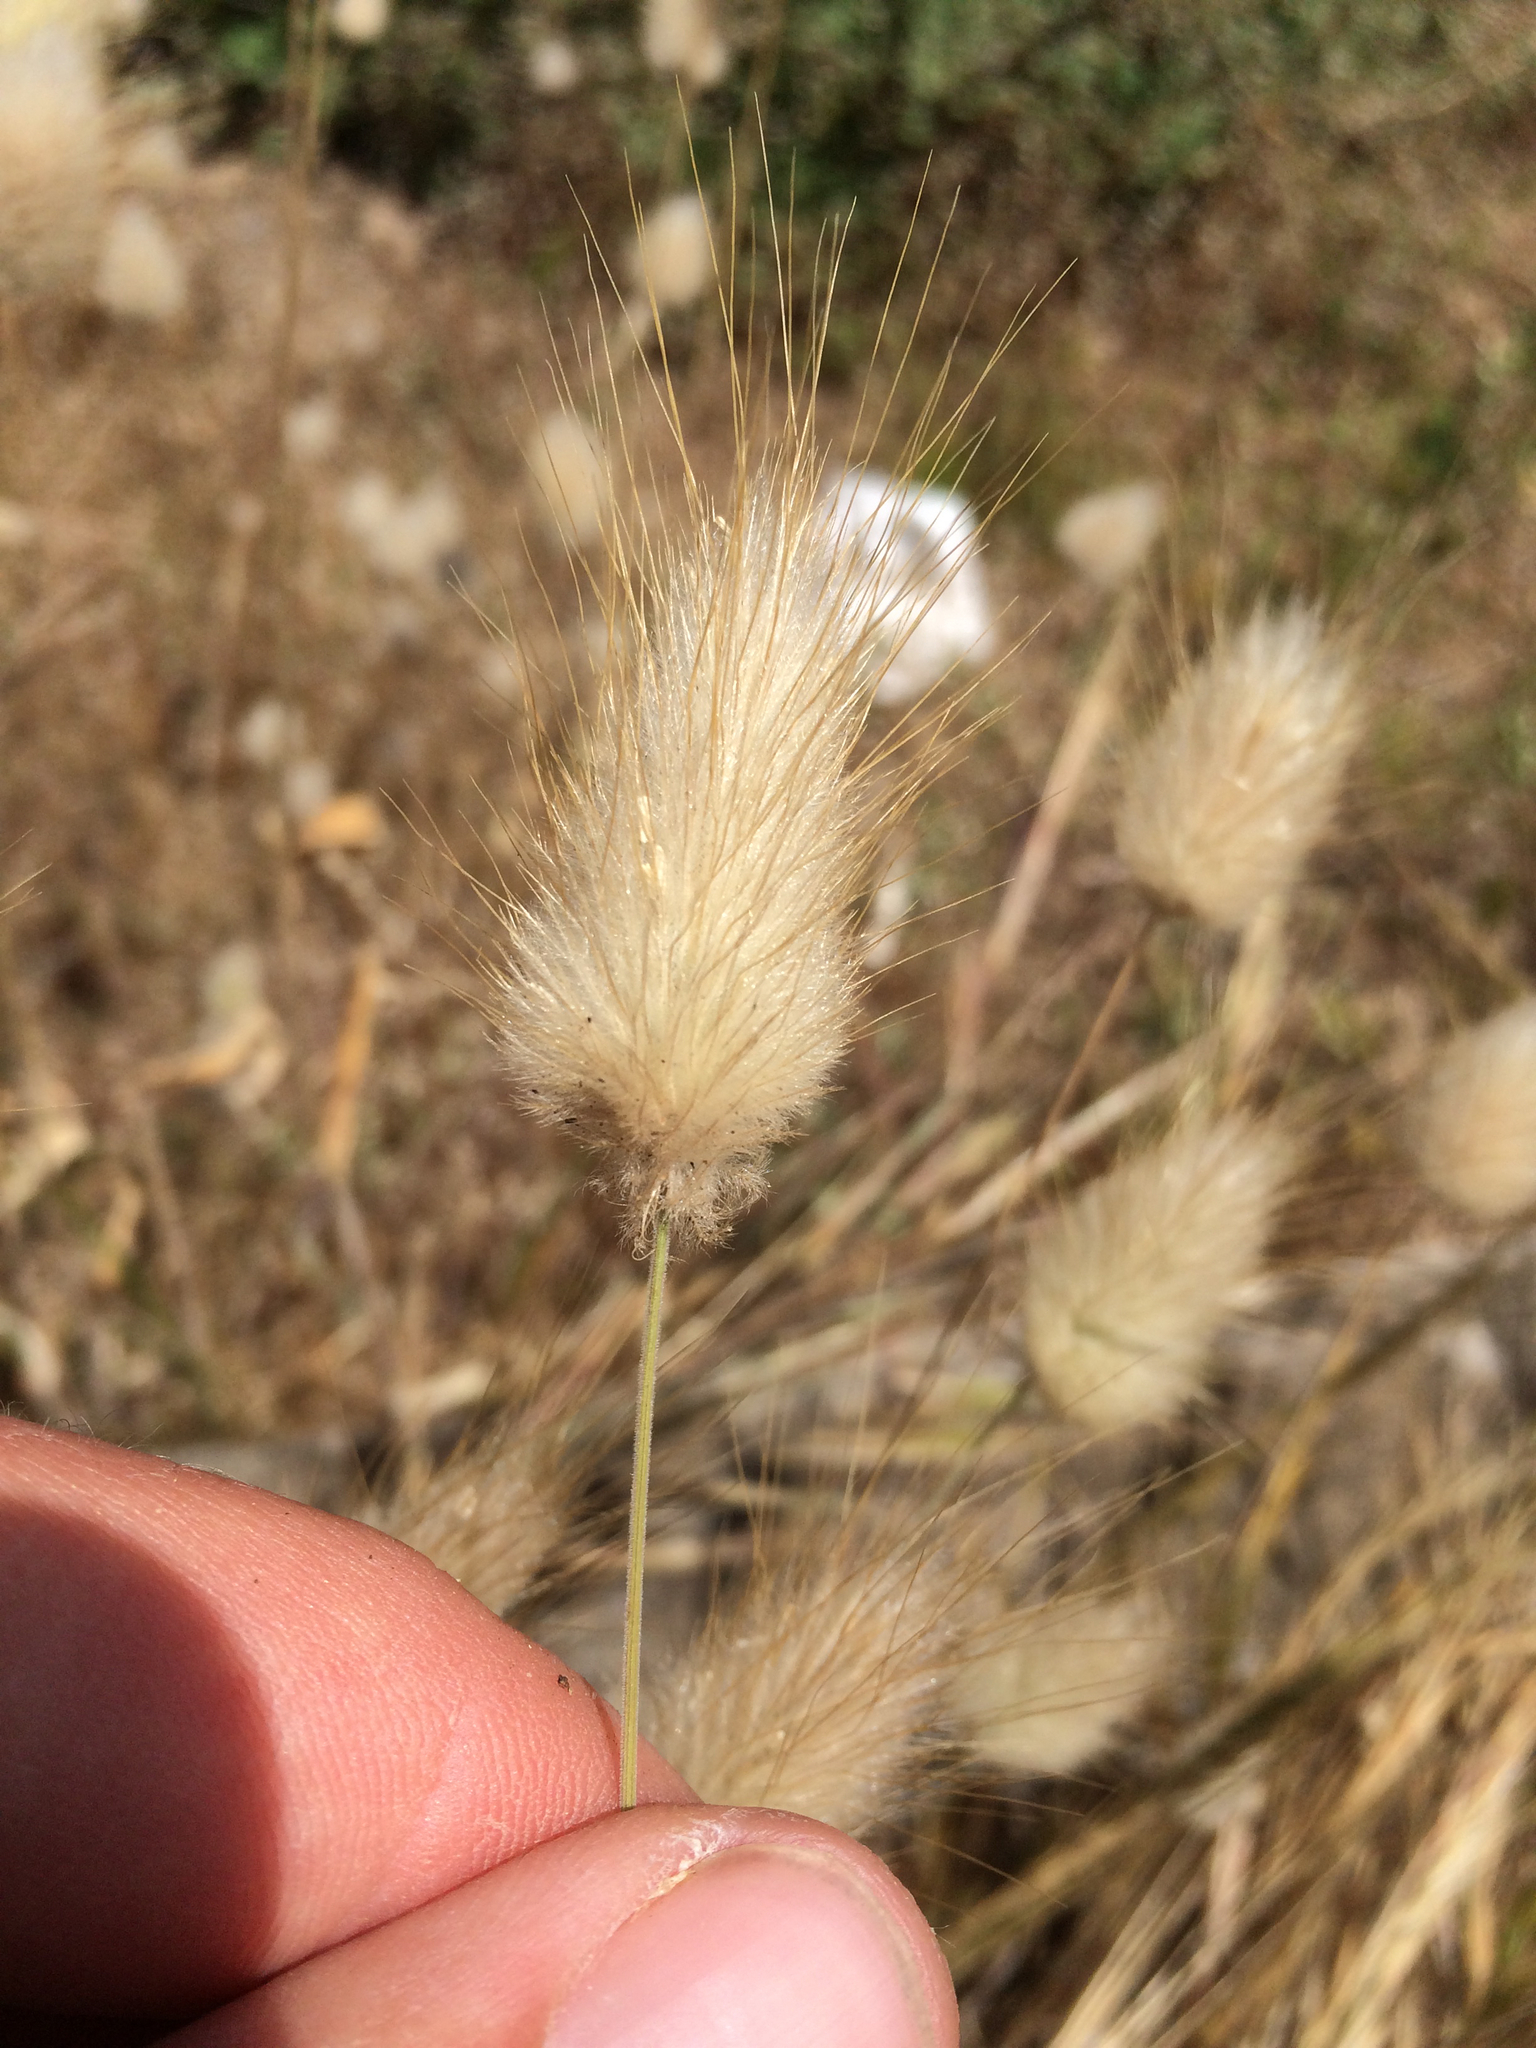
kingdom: Plantae
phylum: Tracheophyta
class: Liliopsida
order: Poales
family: Poaceae
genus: Lagurus
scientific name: Lagurus ovatus
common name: Hare's-tail
